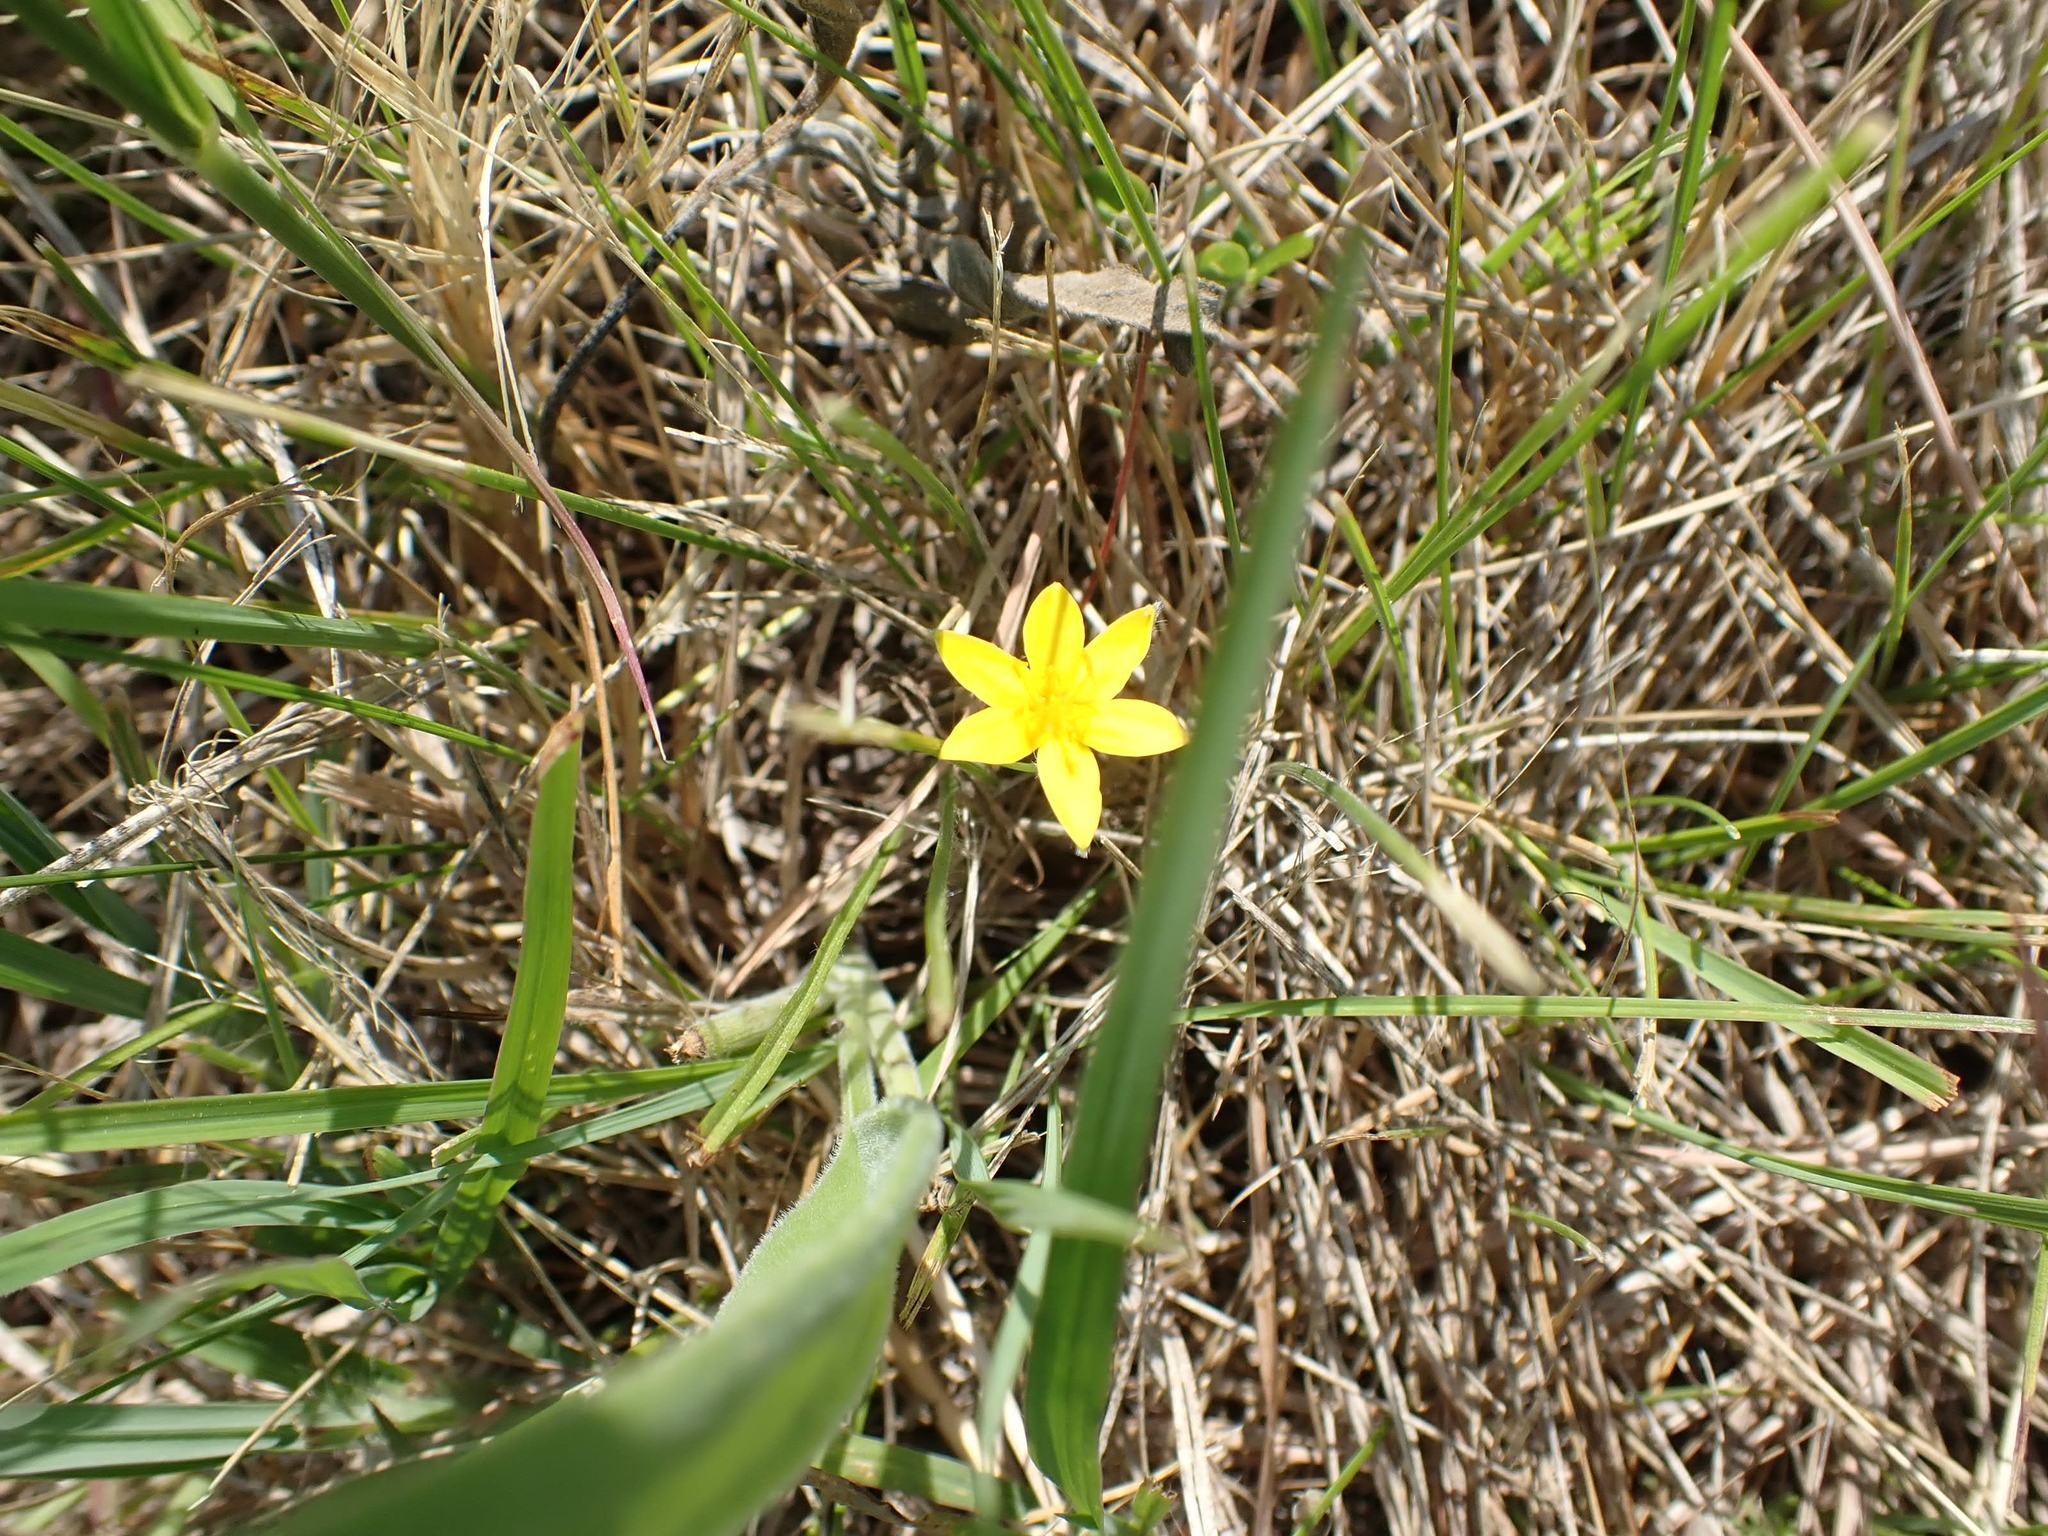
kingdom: Plantae
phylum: Tracheophyta
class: Liliopsida
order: Asparagales
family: Hypoxidaceae
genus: Hypoxis
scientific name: Hypoxis hirsuta
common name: Common goldstar
